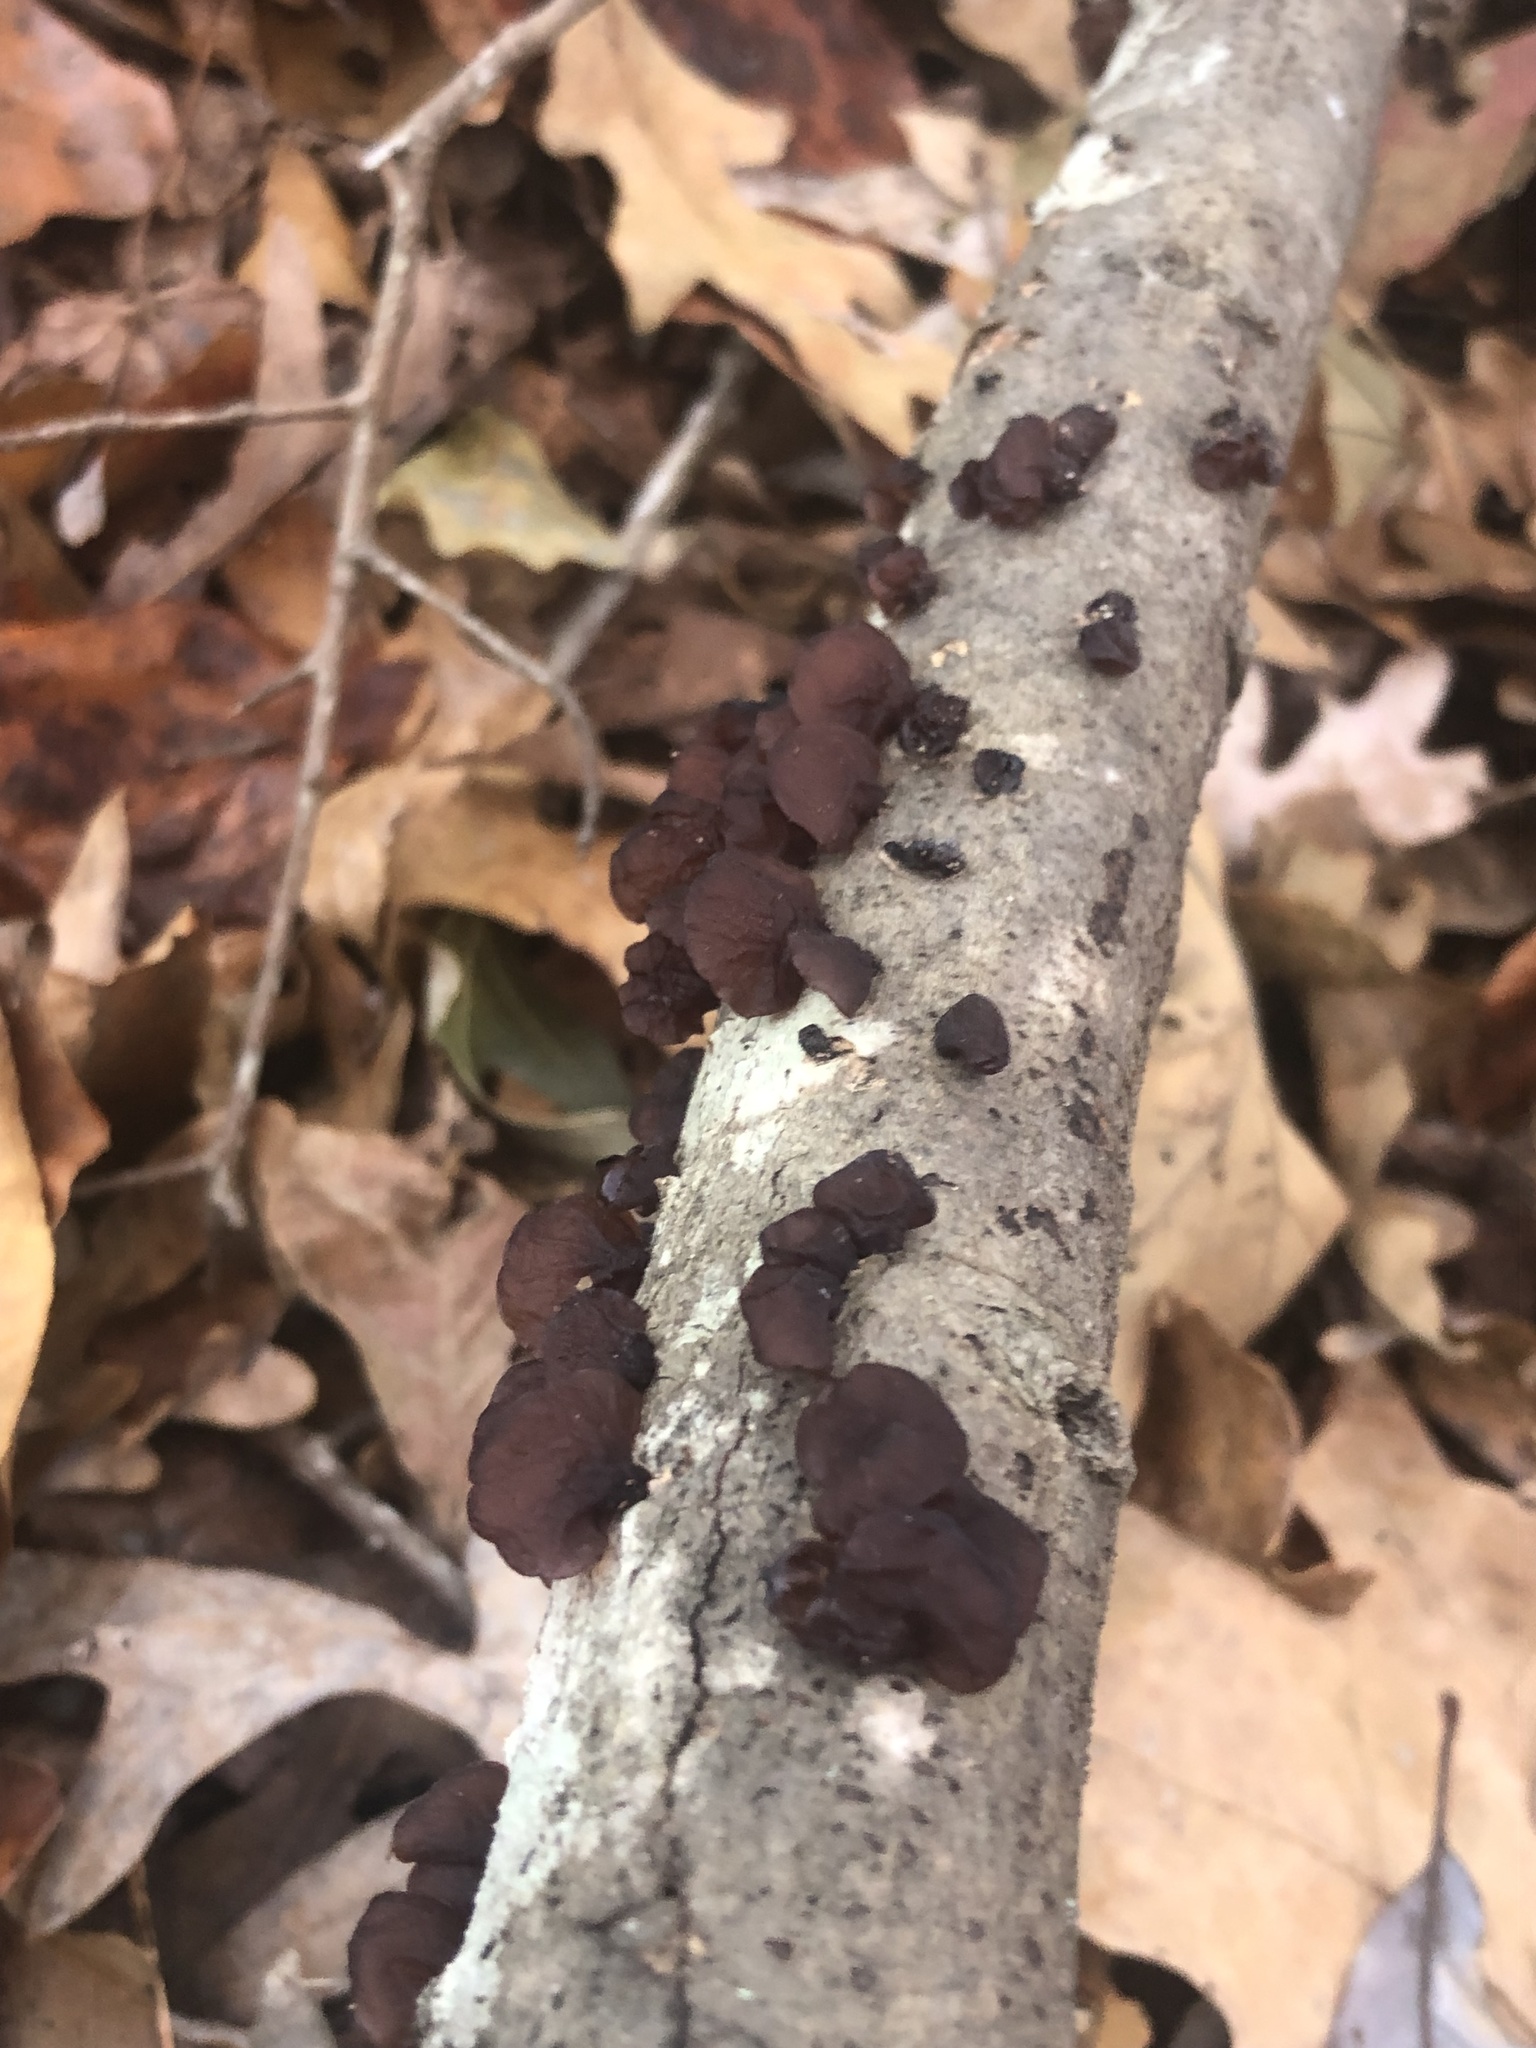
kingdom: Fungi
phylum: Basidiomycota
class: Agaricomycetes
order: Auriculariales
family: Auriculariaceae
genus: Exidia
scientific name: Exidia
